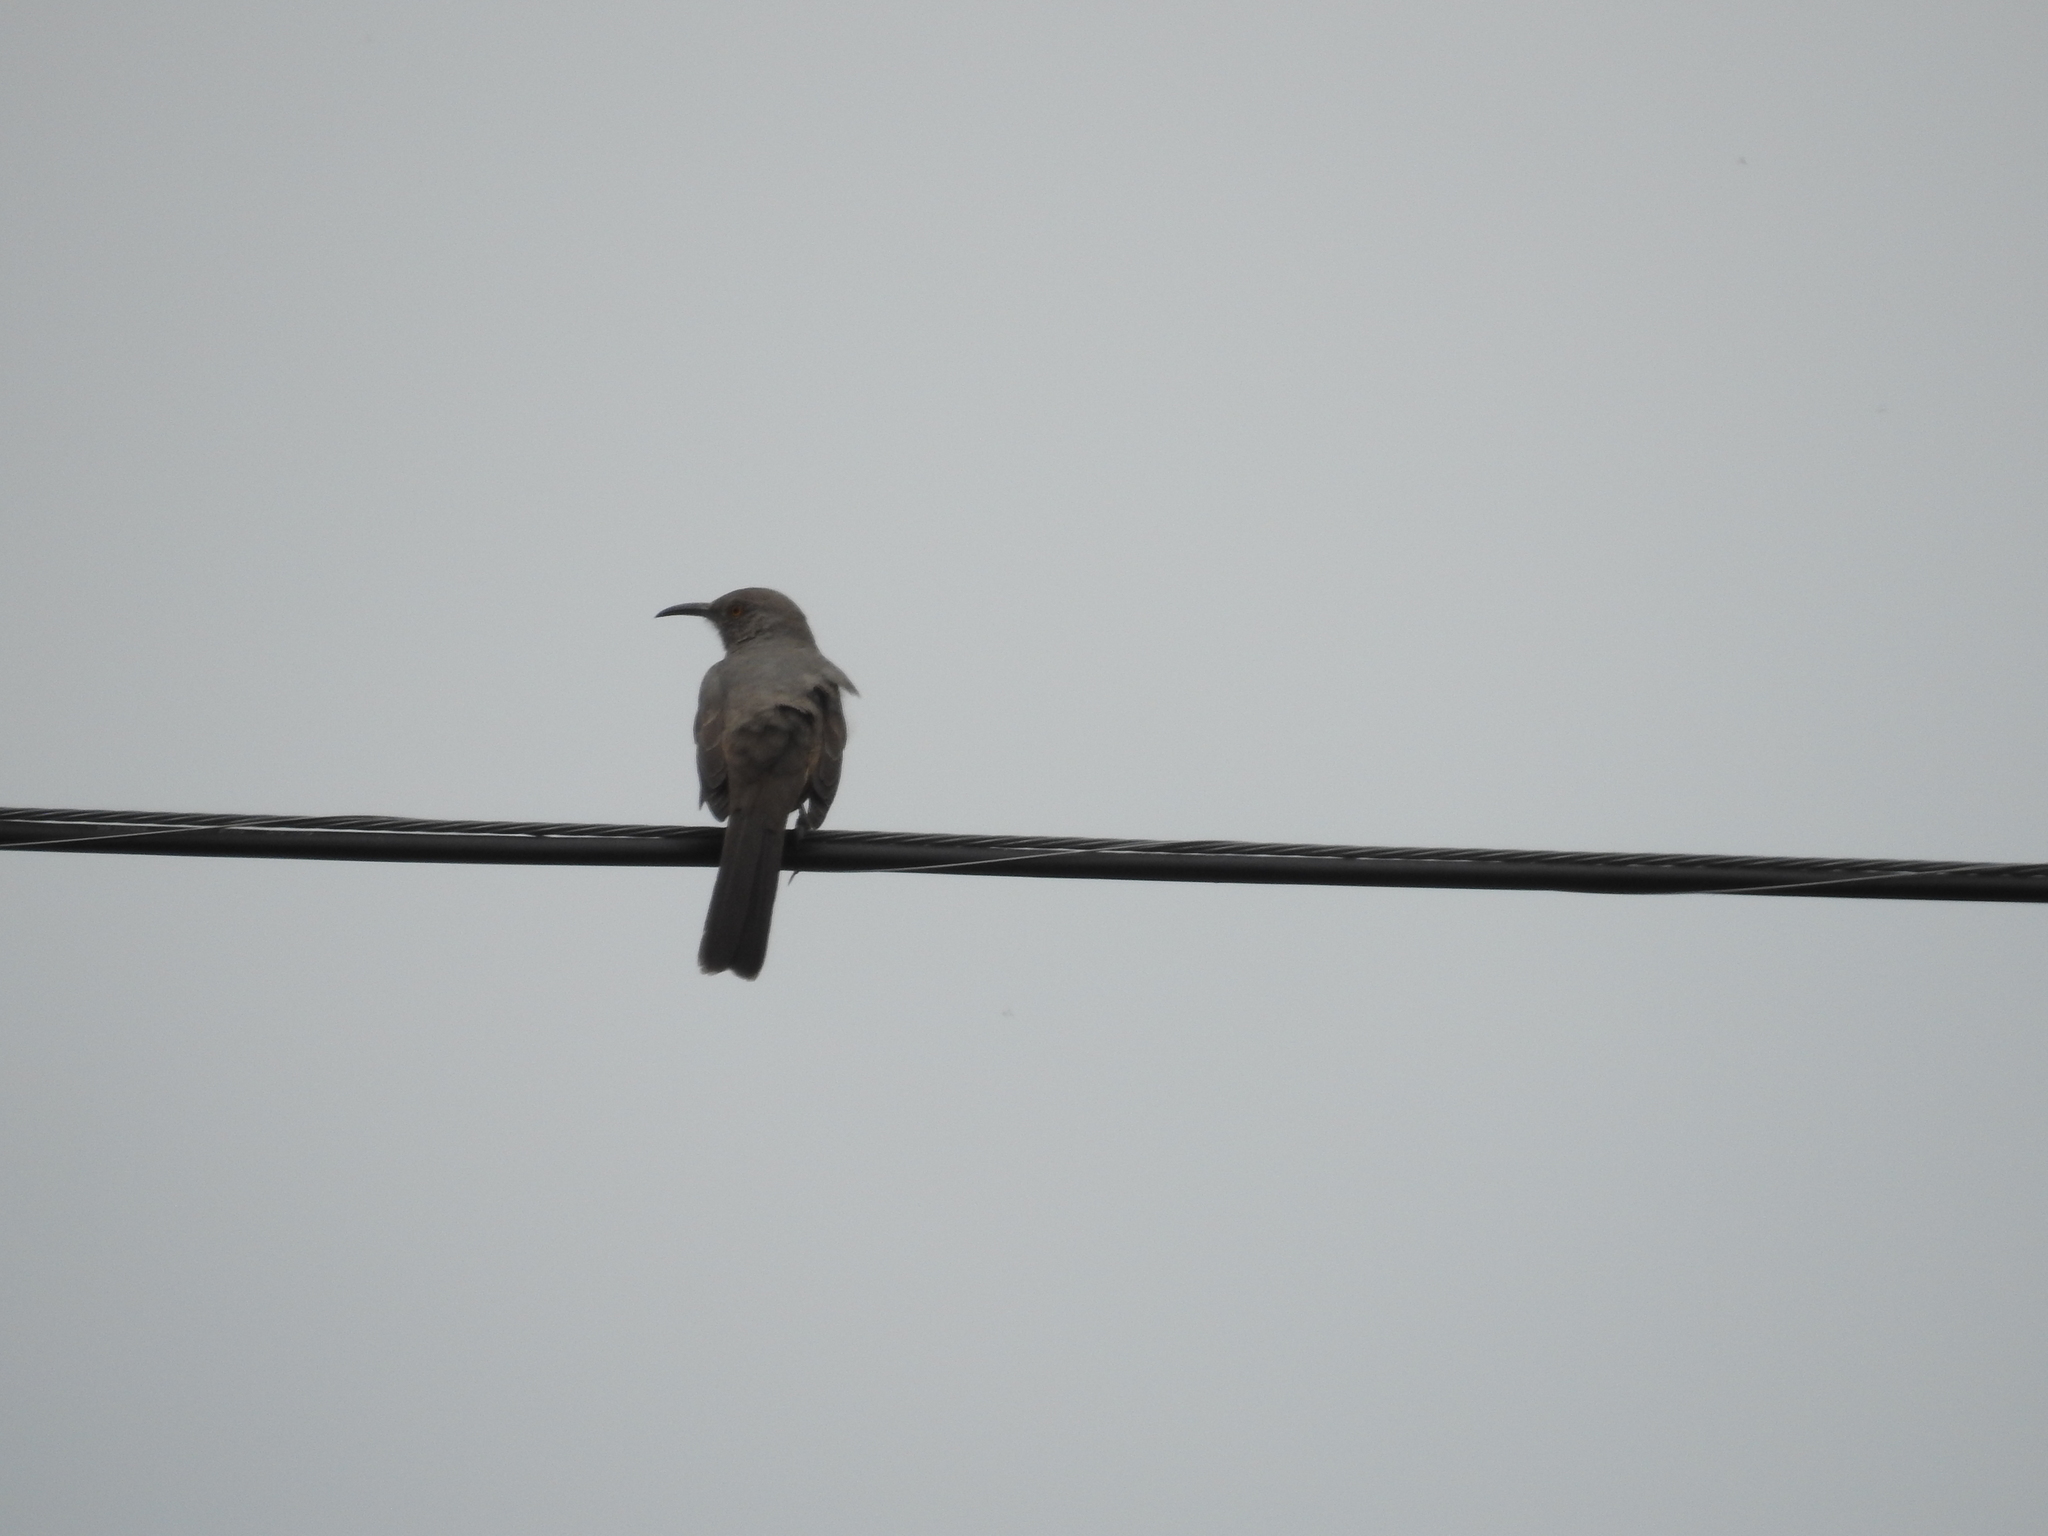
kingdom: Animalia
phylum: Chordata
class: Aves
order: Passeriformes
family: Mimidae
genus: Toxostoma
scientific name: Toxostoma curvirostre
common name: Curve-billed thrasher
